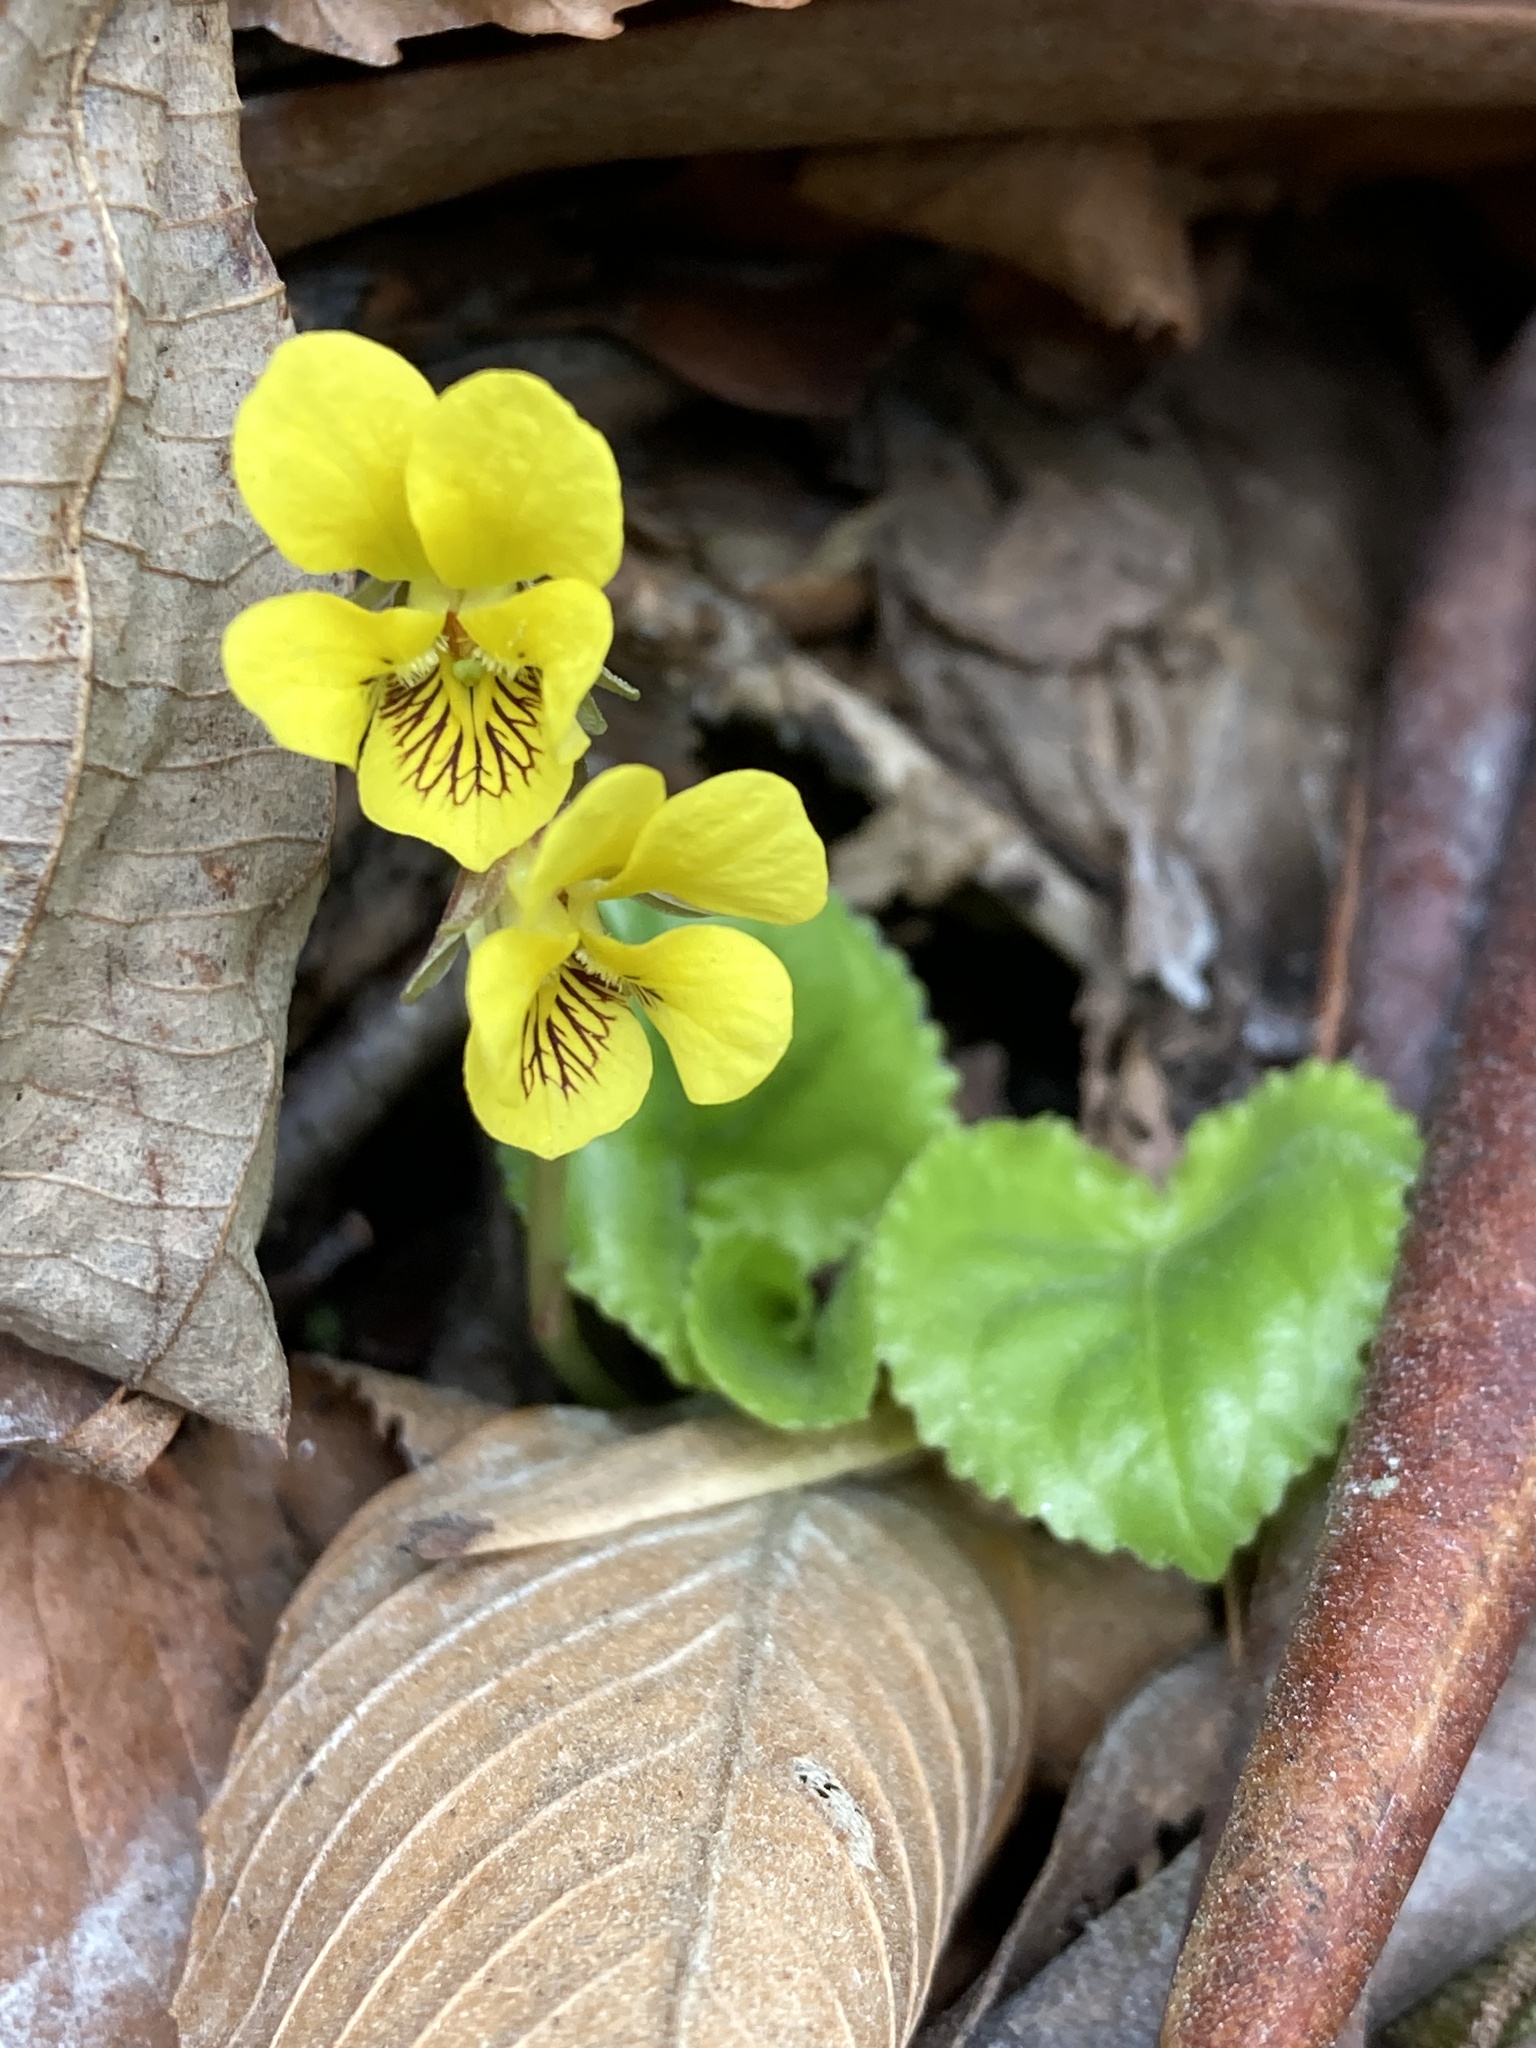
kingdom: Plantae
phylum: Tracheophyta
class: Magnoliopsida
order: Malpighiales
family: Violaceae
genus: Viola
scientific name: Viola rotundifolia
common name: Early yellow violet
